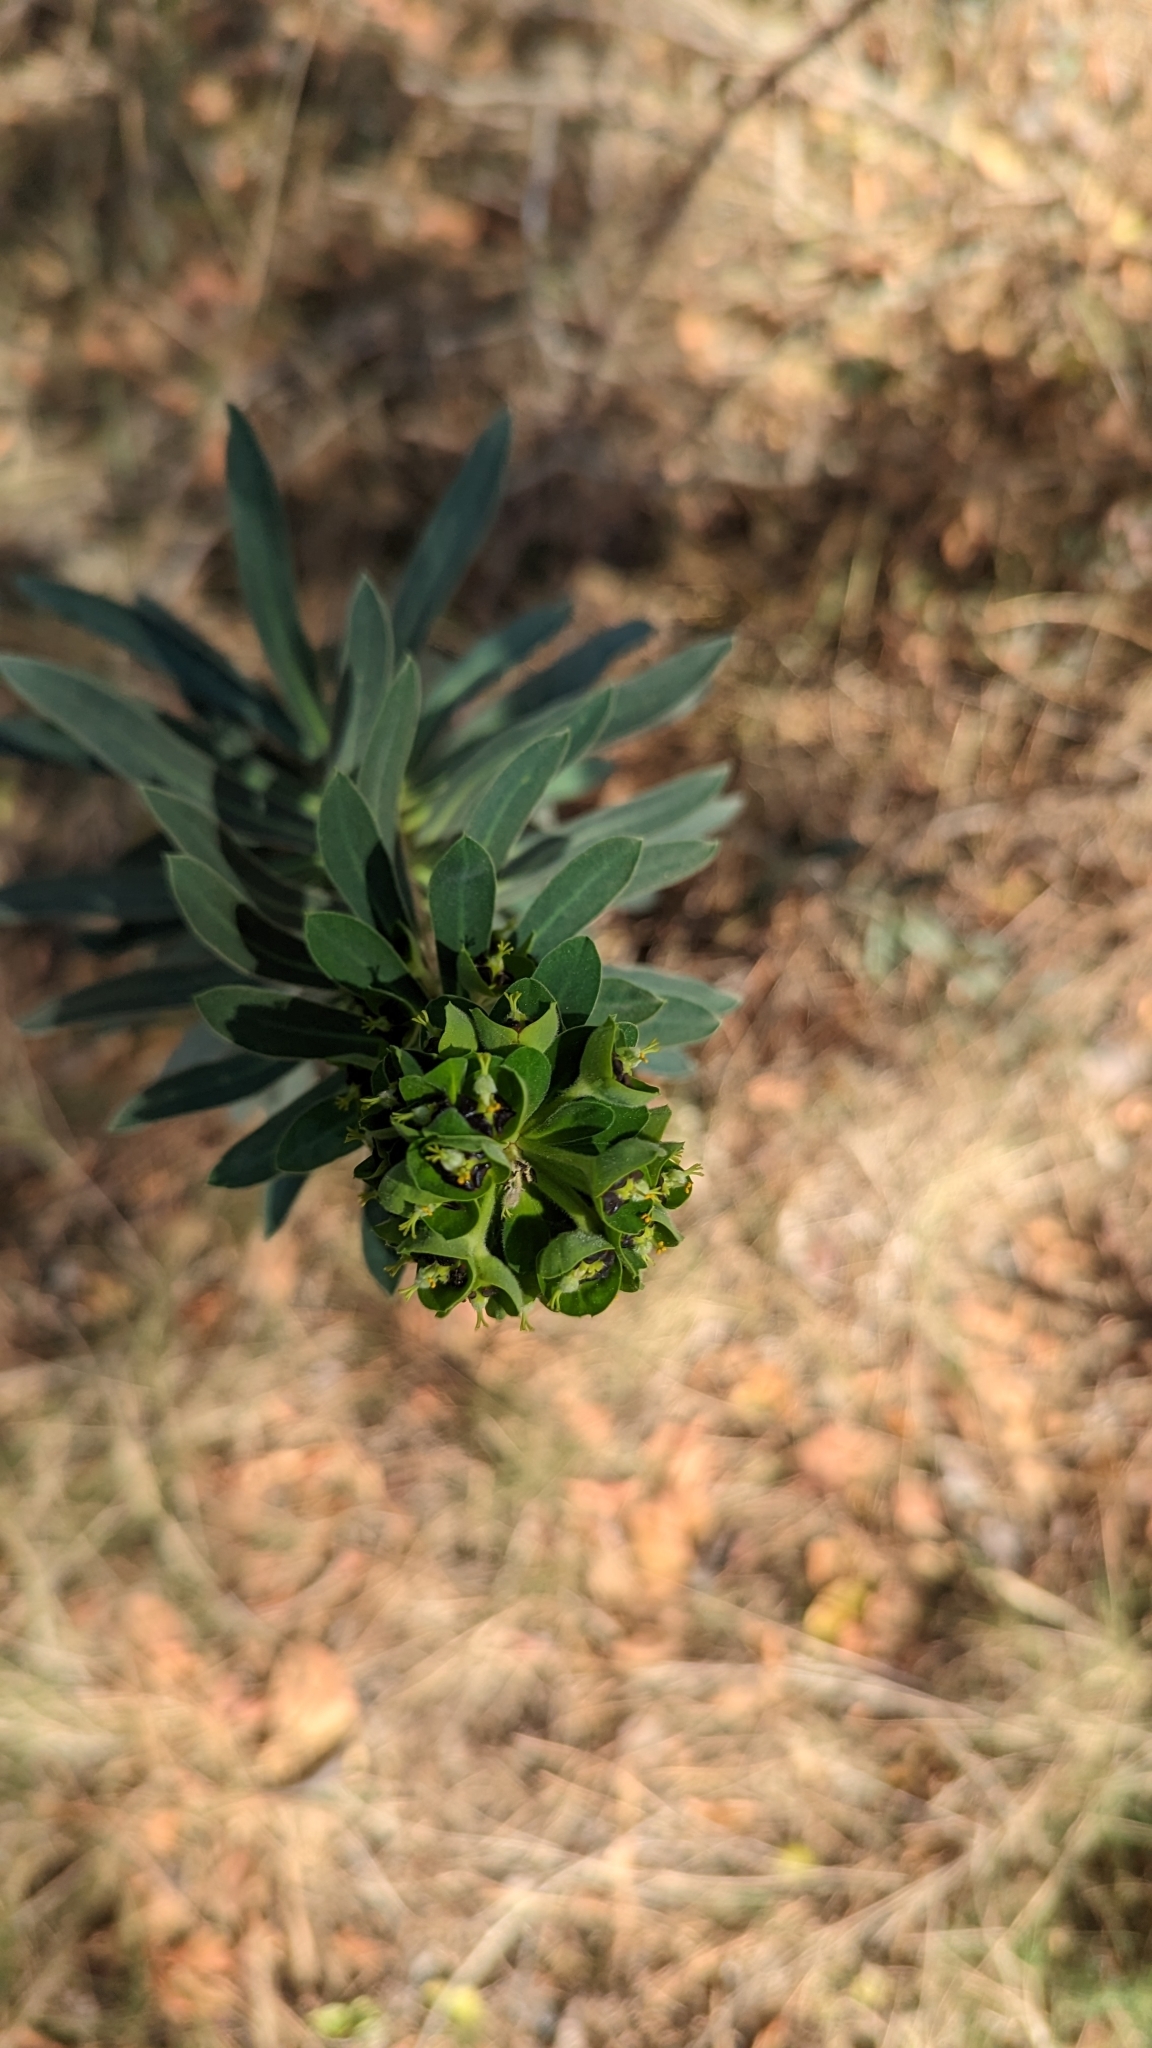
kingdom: Plantae
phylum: Tracheophyta
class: Magnoliopsida
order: Malpighiales
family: Euphorbiaceae
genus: Euphorbia
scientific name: Euphorbia characias
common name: Mediterranean spurge
